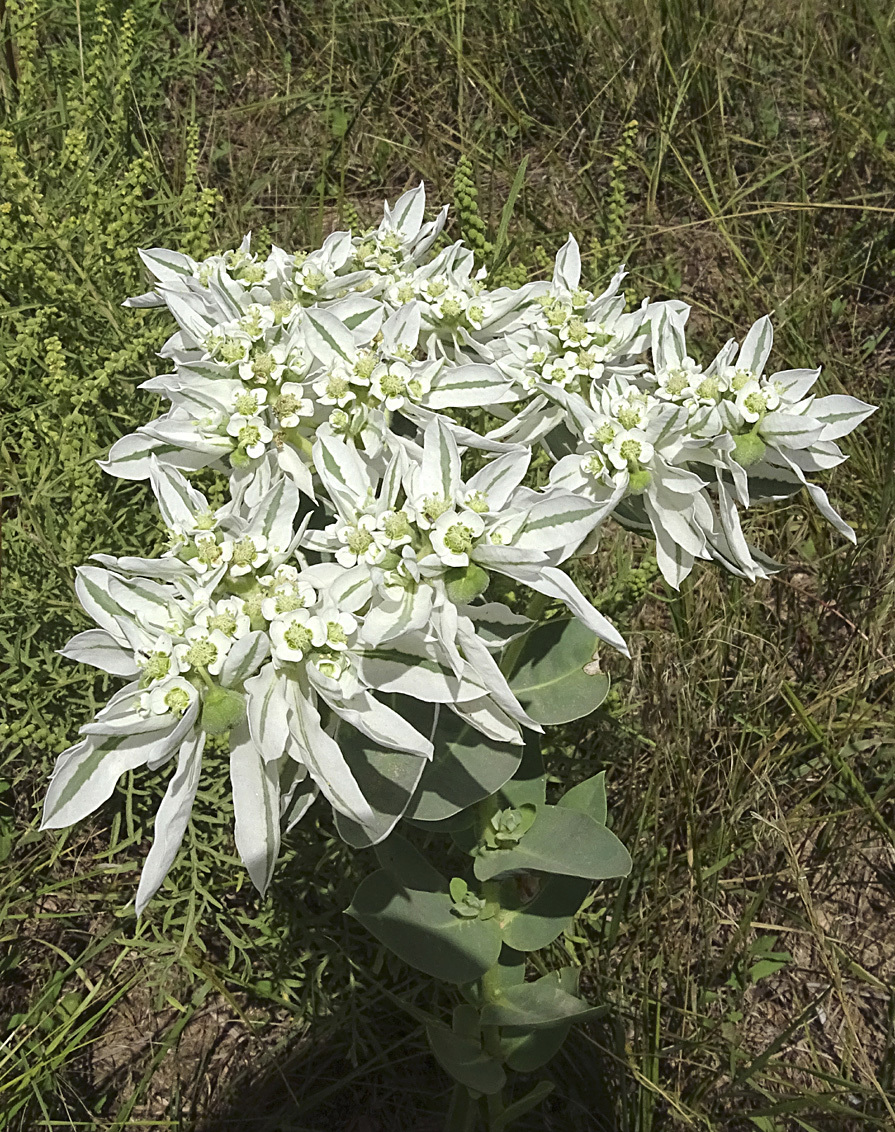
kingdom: Plantae
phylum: Tracheophyta
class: Magnoliopsida
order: Malpighiales
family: Euphorbiaceae
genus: Euphorbia
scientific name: Euphorbia marginata
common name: Ghostweed
